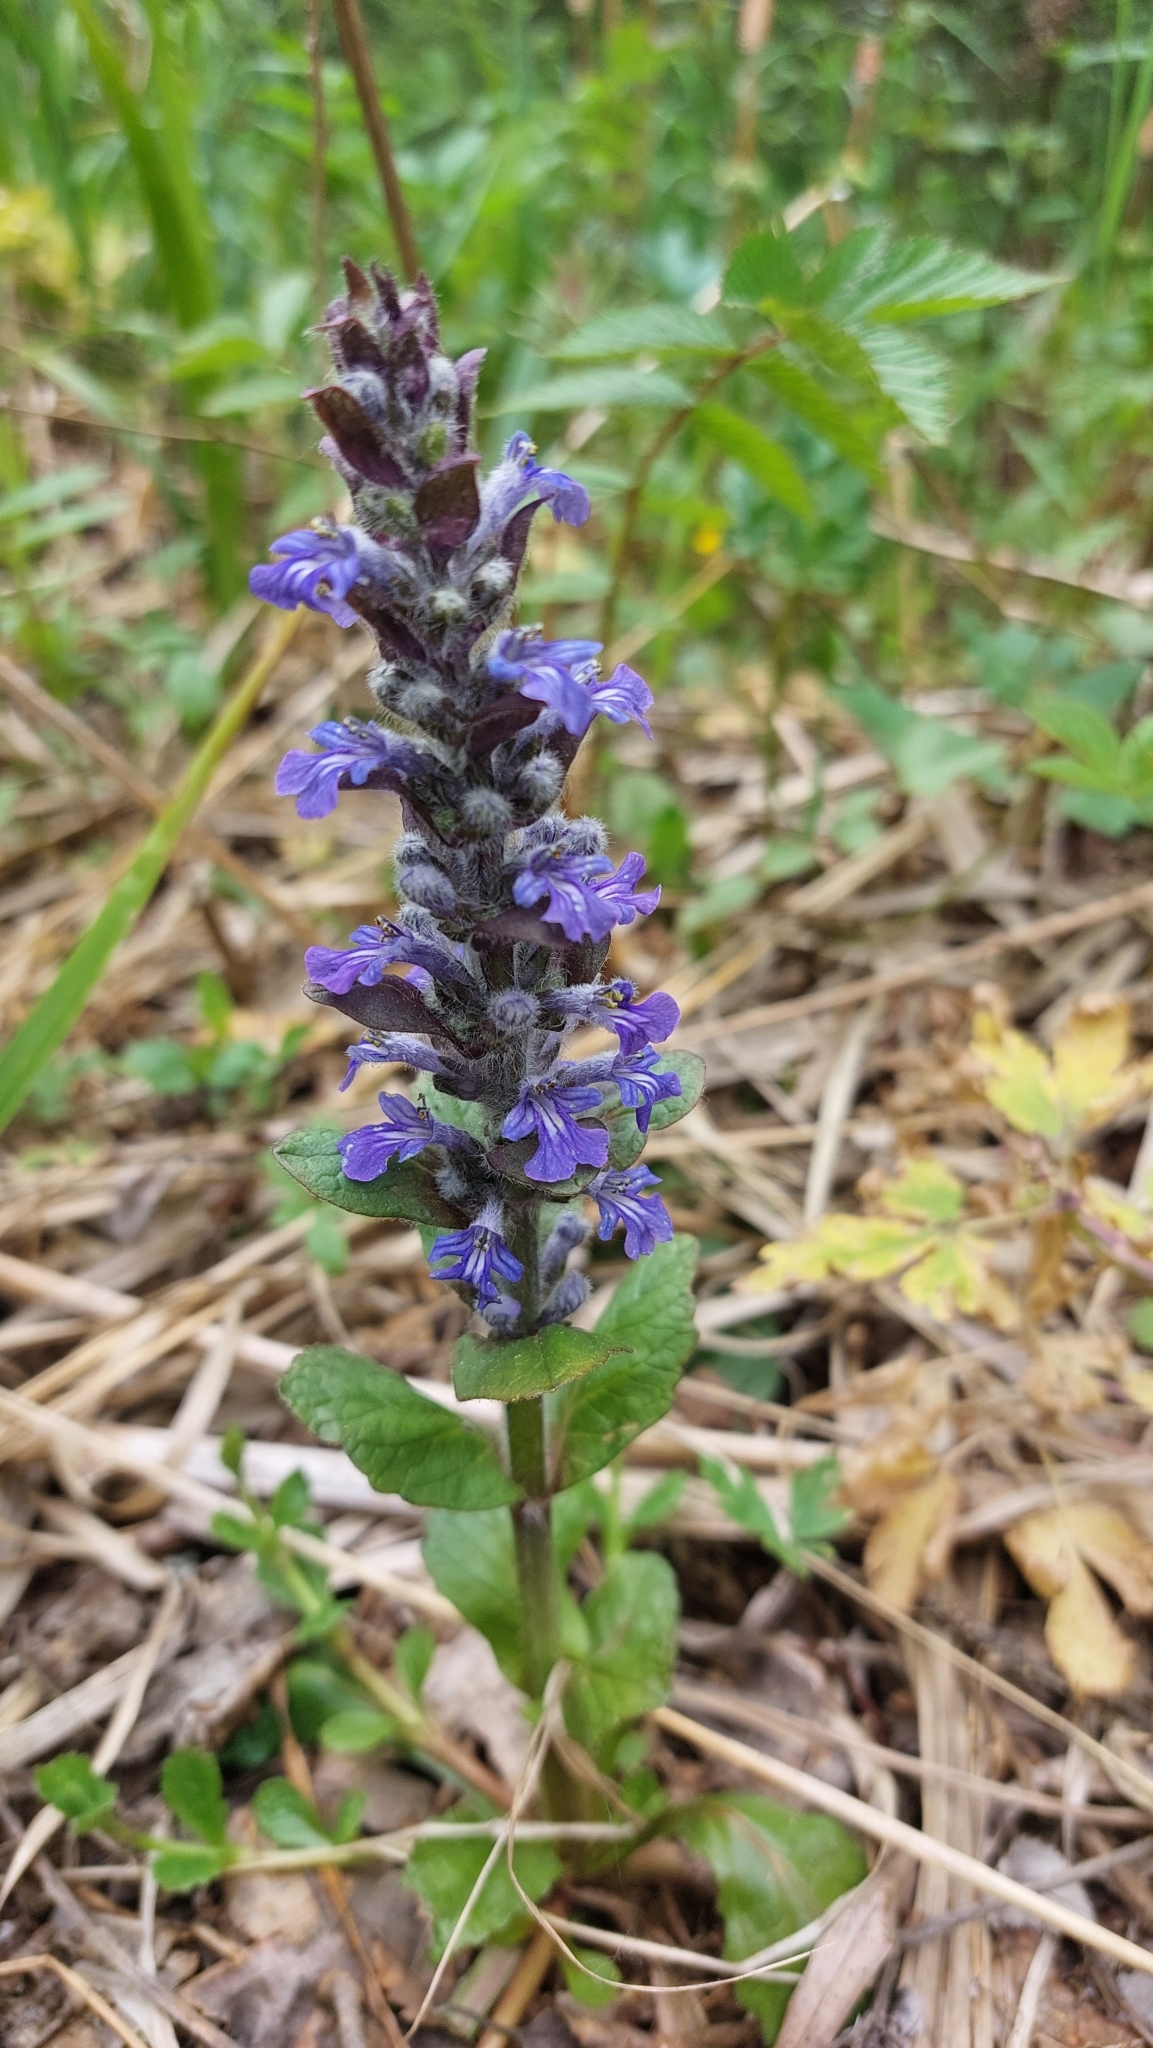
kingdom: Plantae
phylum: Tracheophyta
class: Magnoliopsida
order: Lamiales
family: Lamiaceae
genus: Ajuga
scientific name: Ajuga reptans
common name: Bugle
